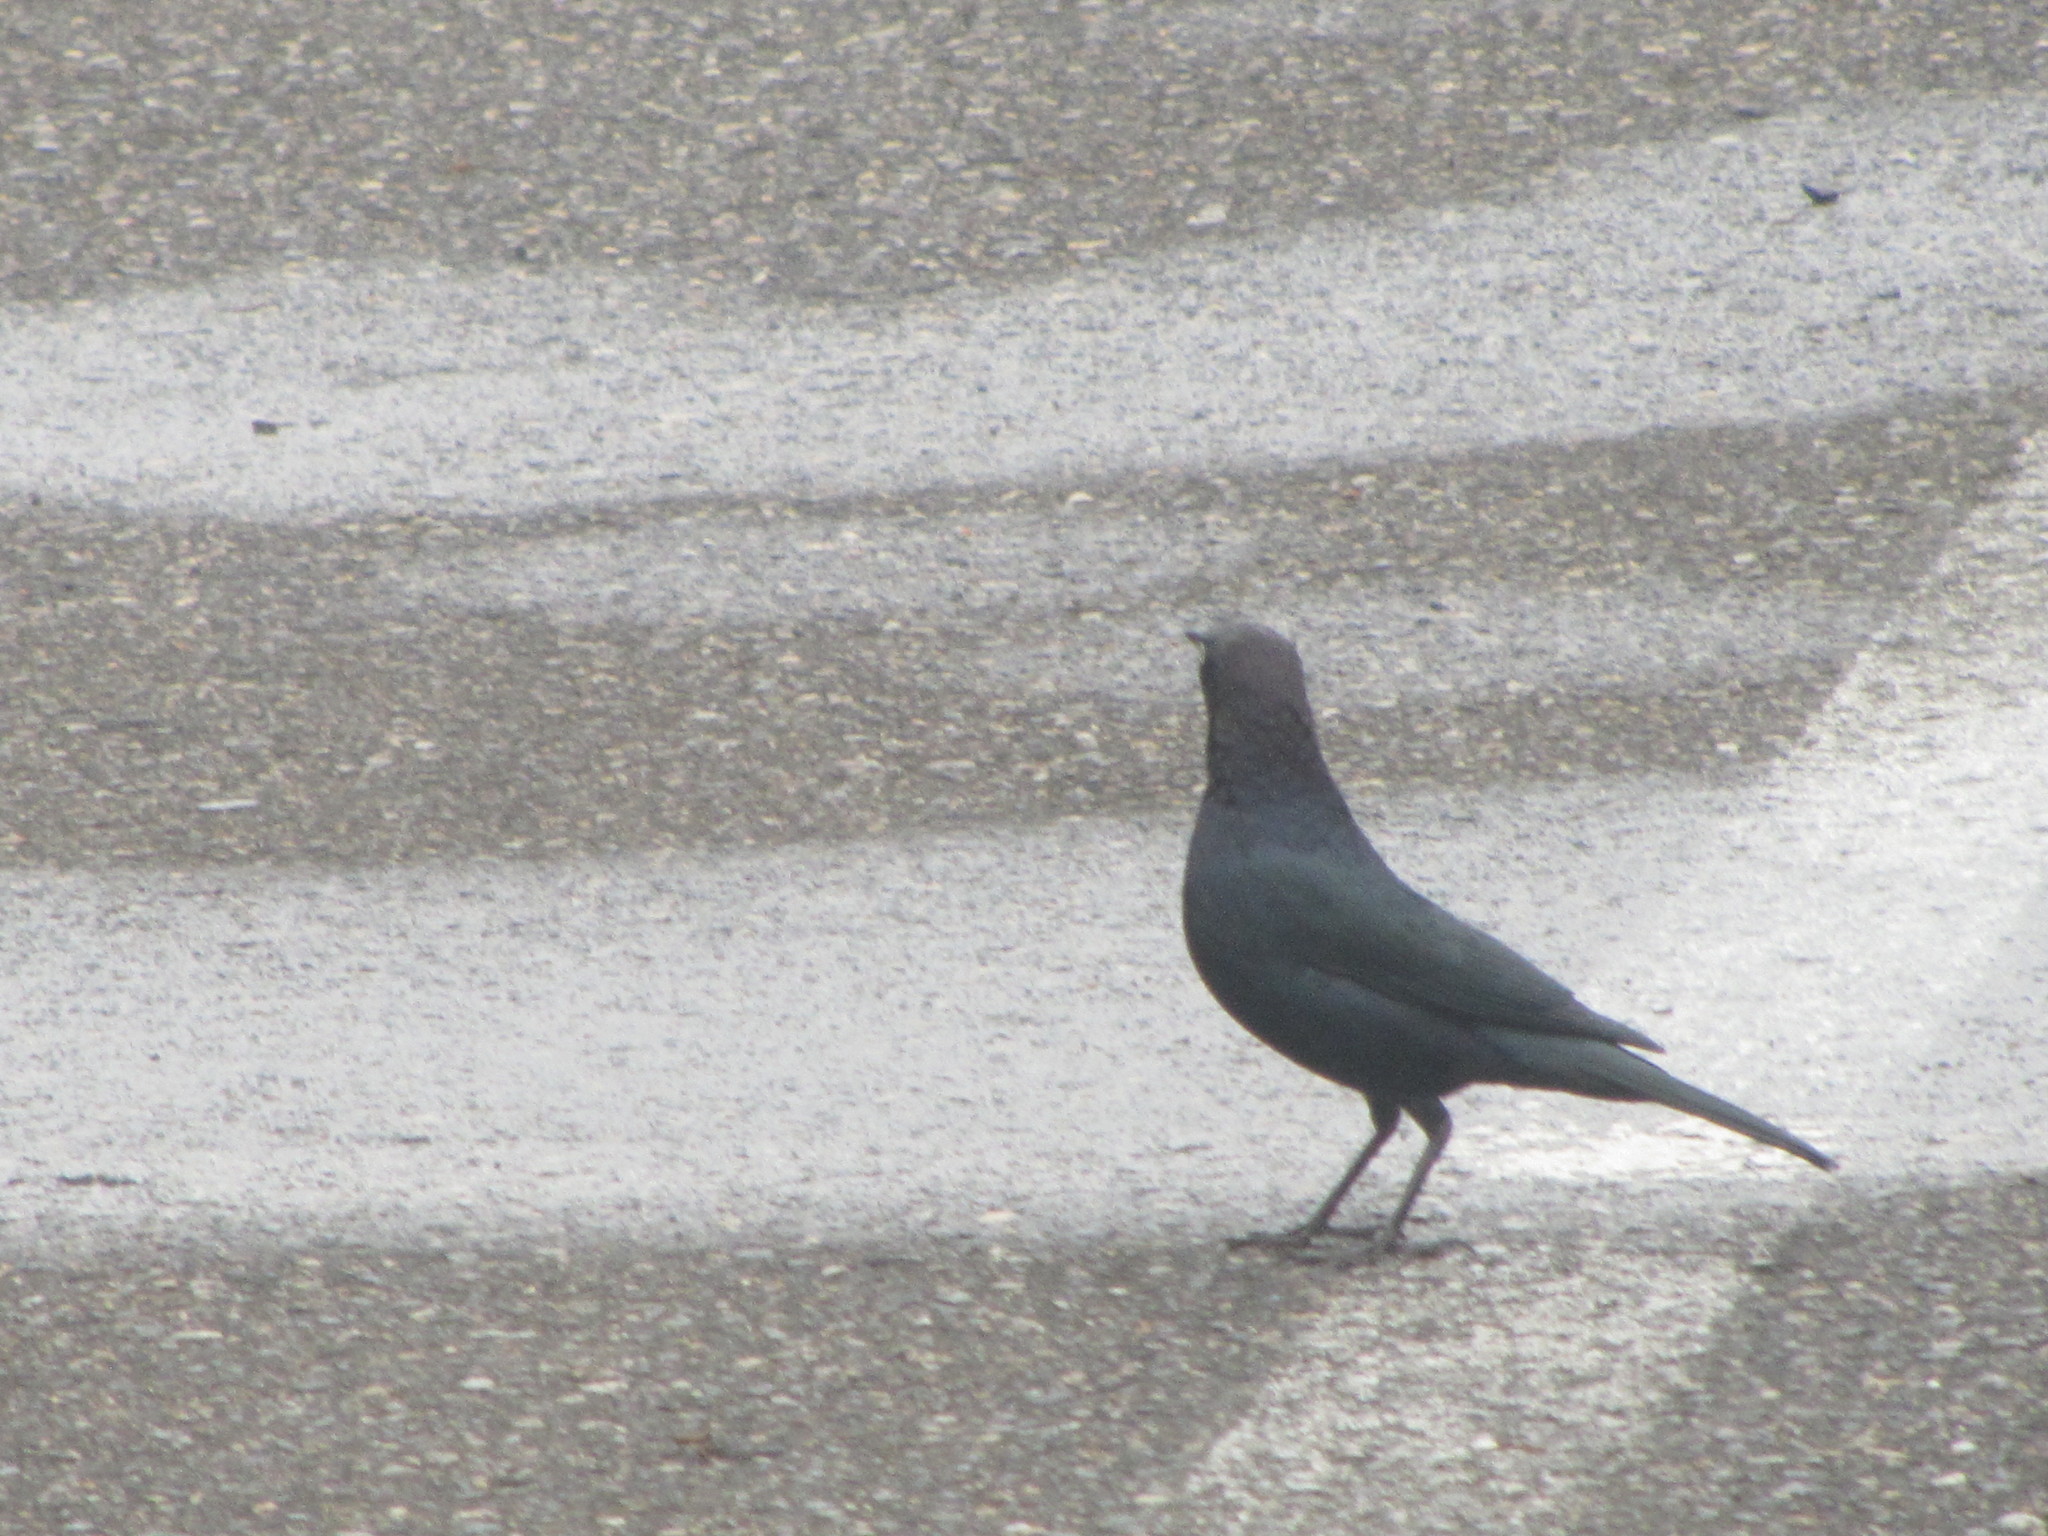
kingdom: Animalia
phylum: Chordata
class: Aves
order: Passeriformes
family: Icteridae
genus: Euphagus
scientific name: Euphagus cyanocephalus
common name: Brewer's blackbird
